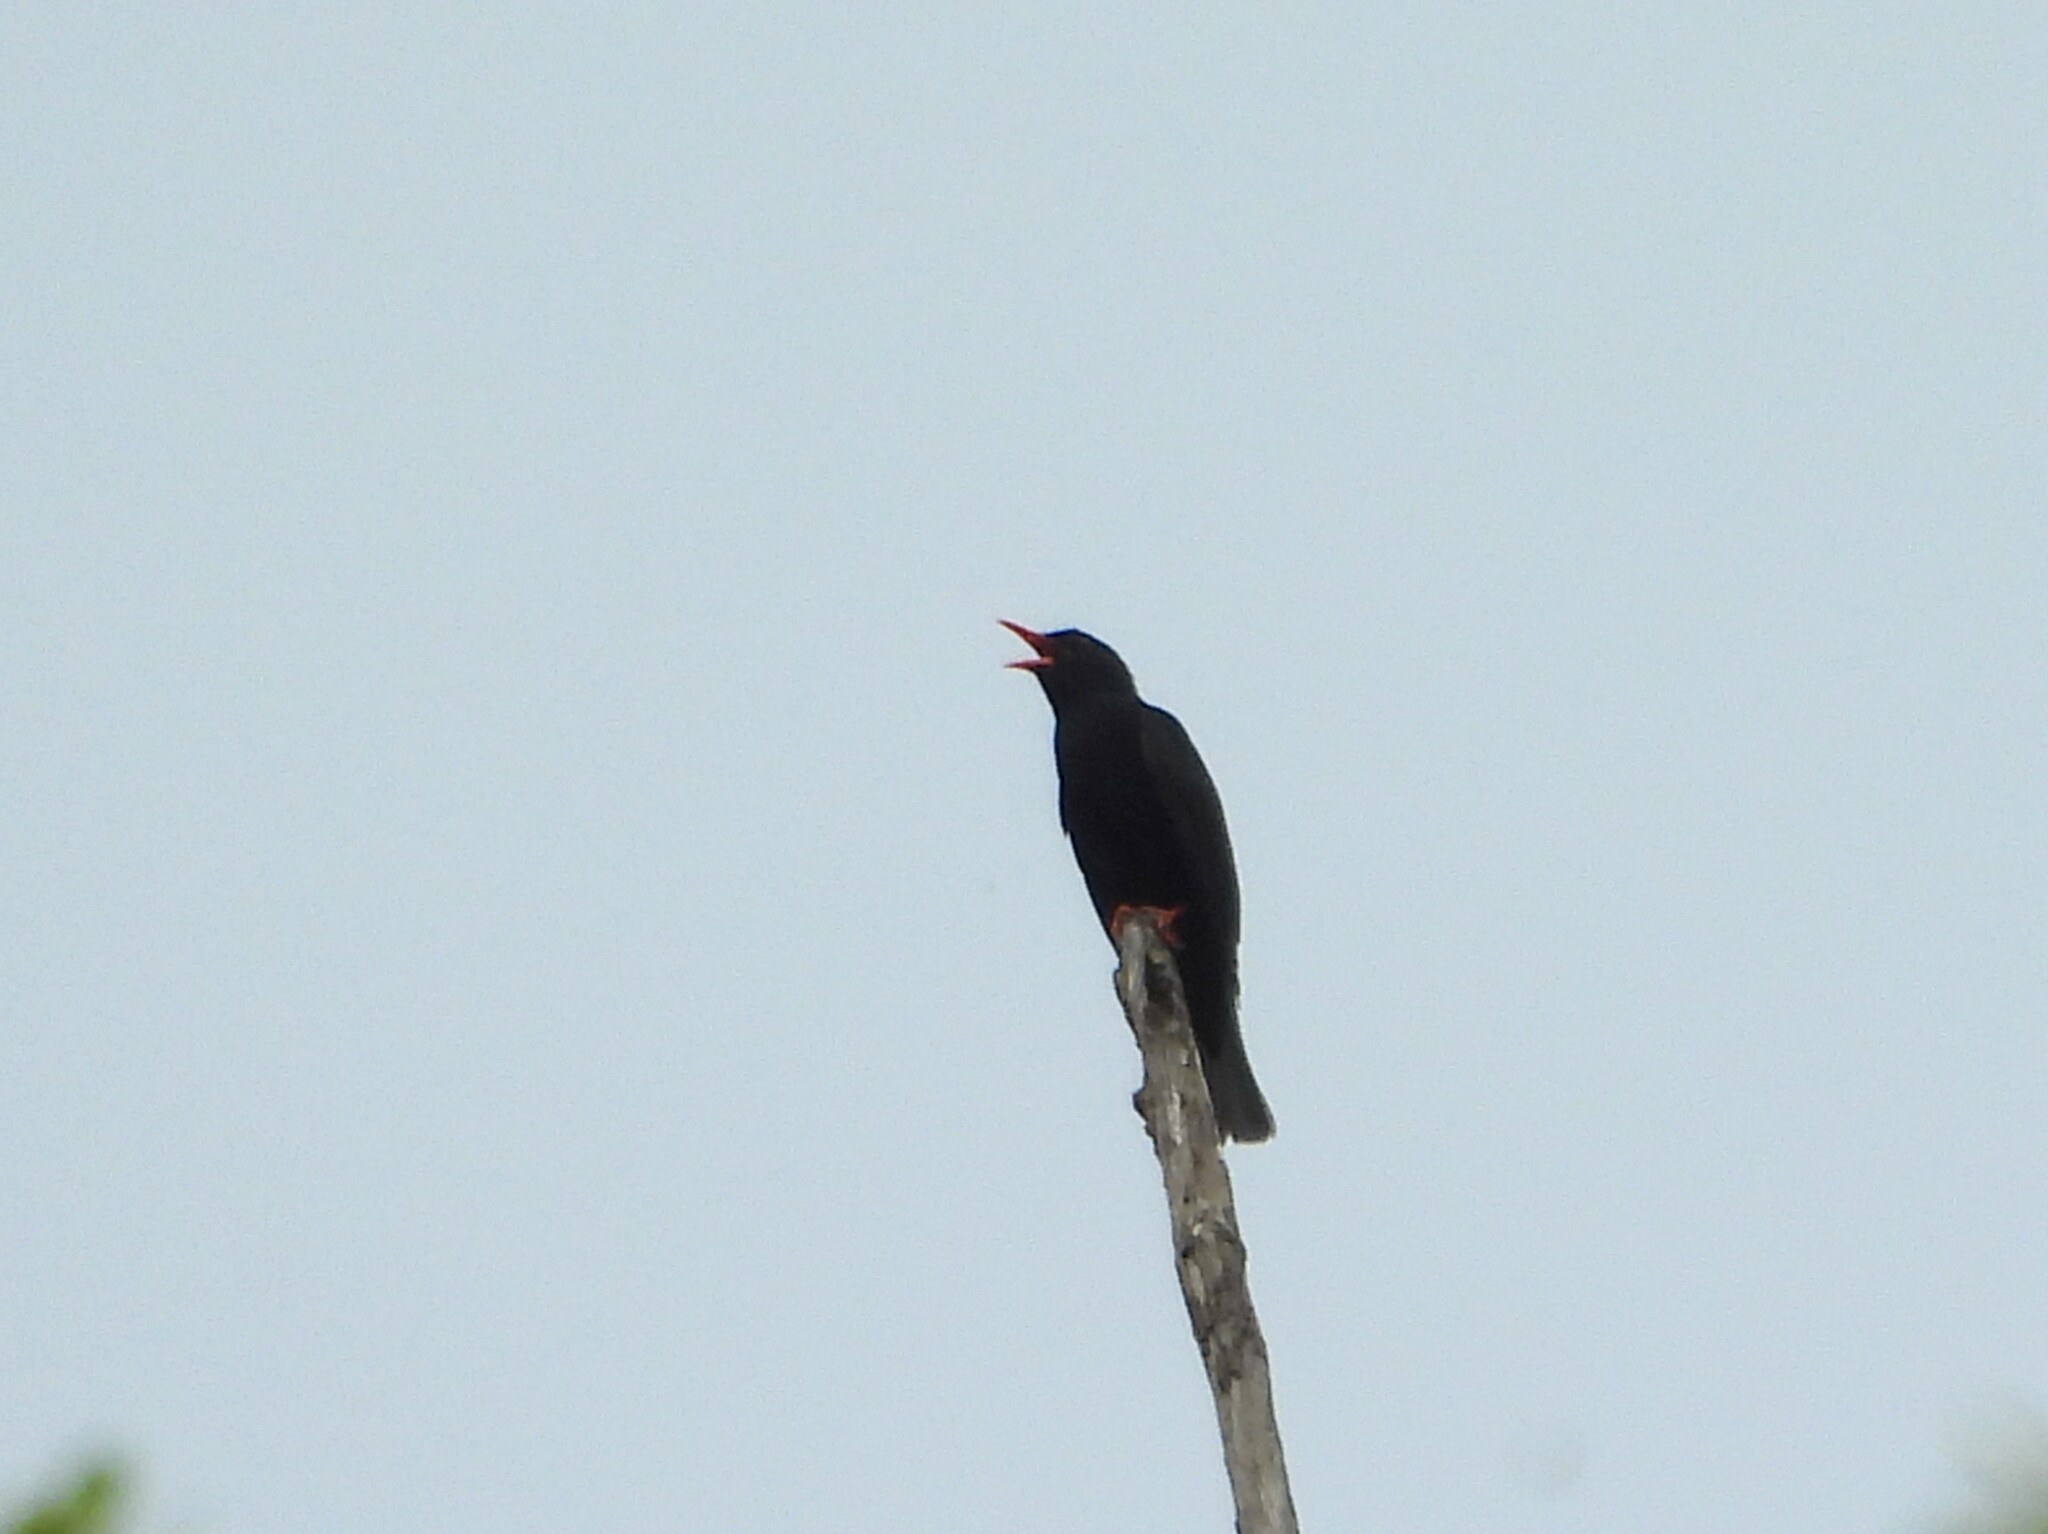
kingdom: Animalia
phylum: Chordata
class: Aves
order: Passeriformes
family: Pycnonotidae
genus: Hypsipetes
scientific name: Hypsipetes leucocephalus
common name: Black bulbul
